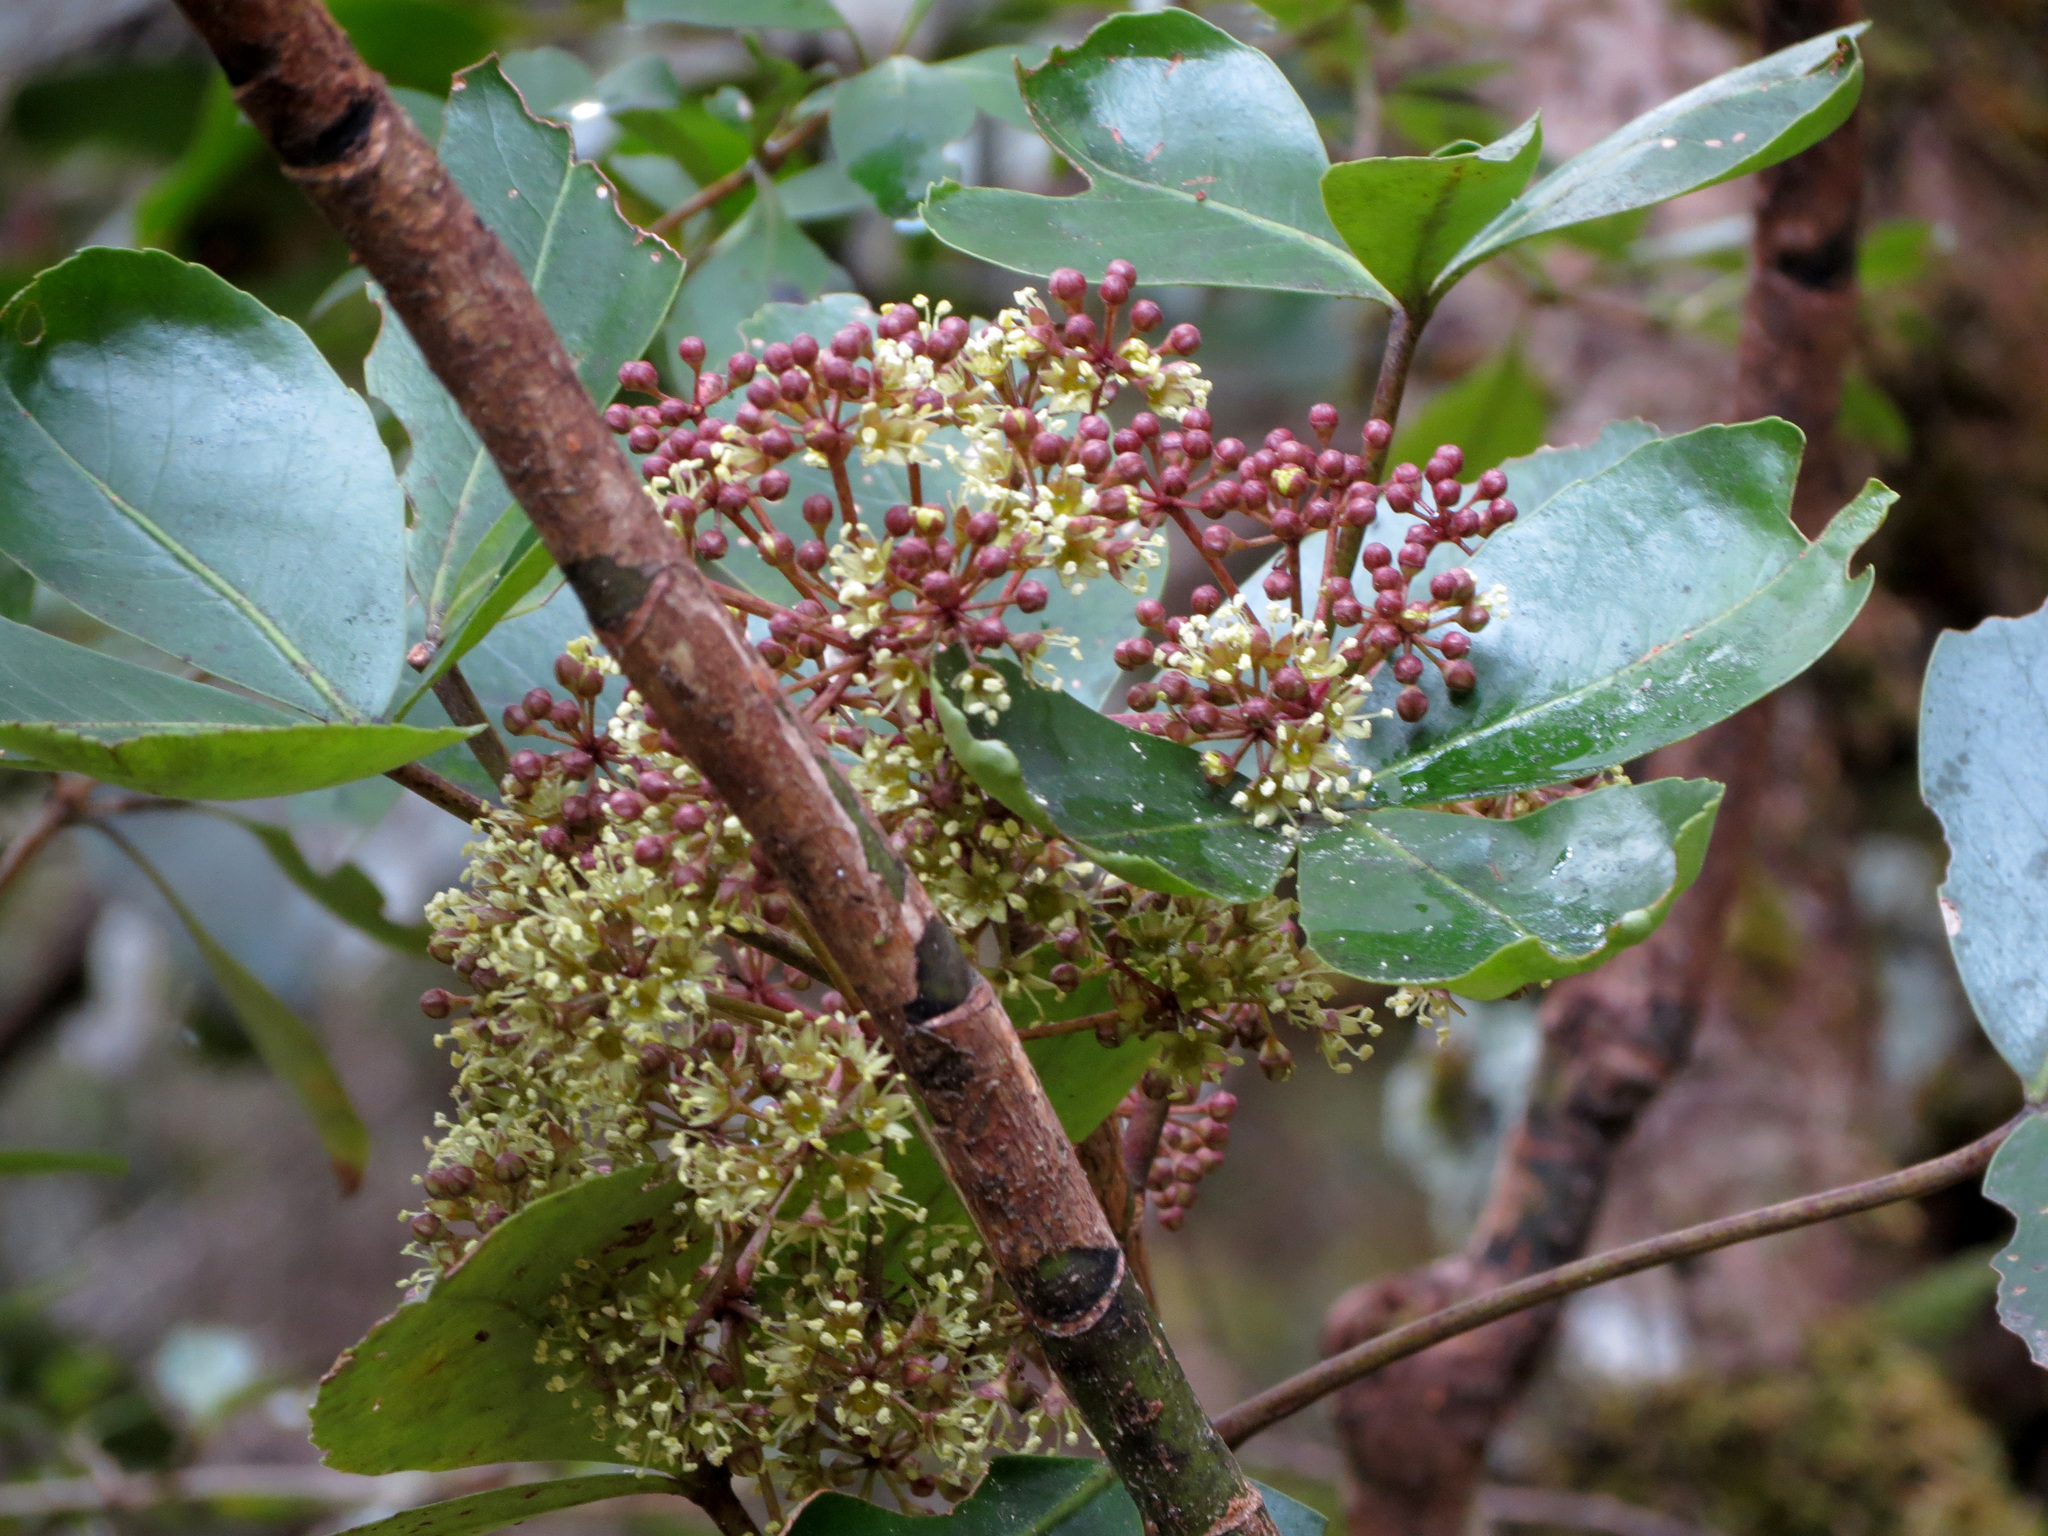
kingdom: Plantae
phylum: Tracheophyta
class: Magnoliopsida
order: Apiales
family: Araliaceae
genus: Neopanax
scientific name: Neopanax colensoi
